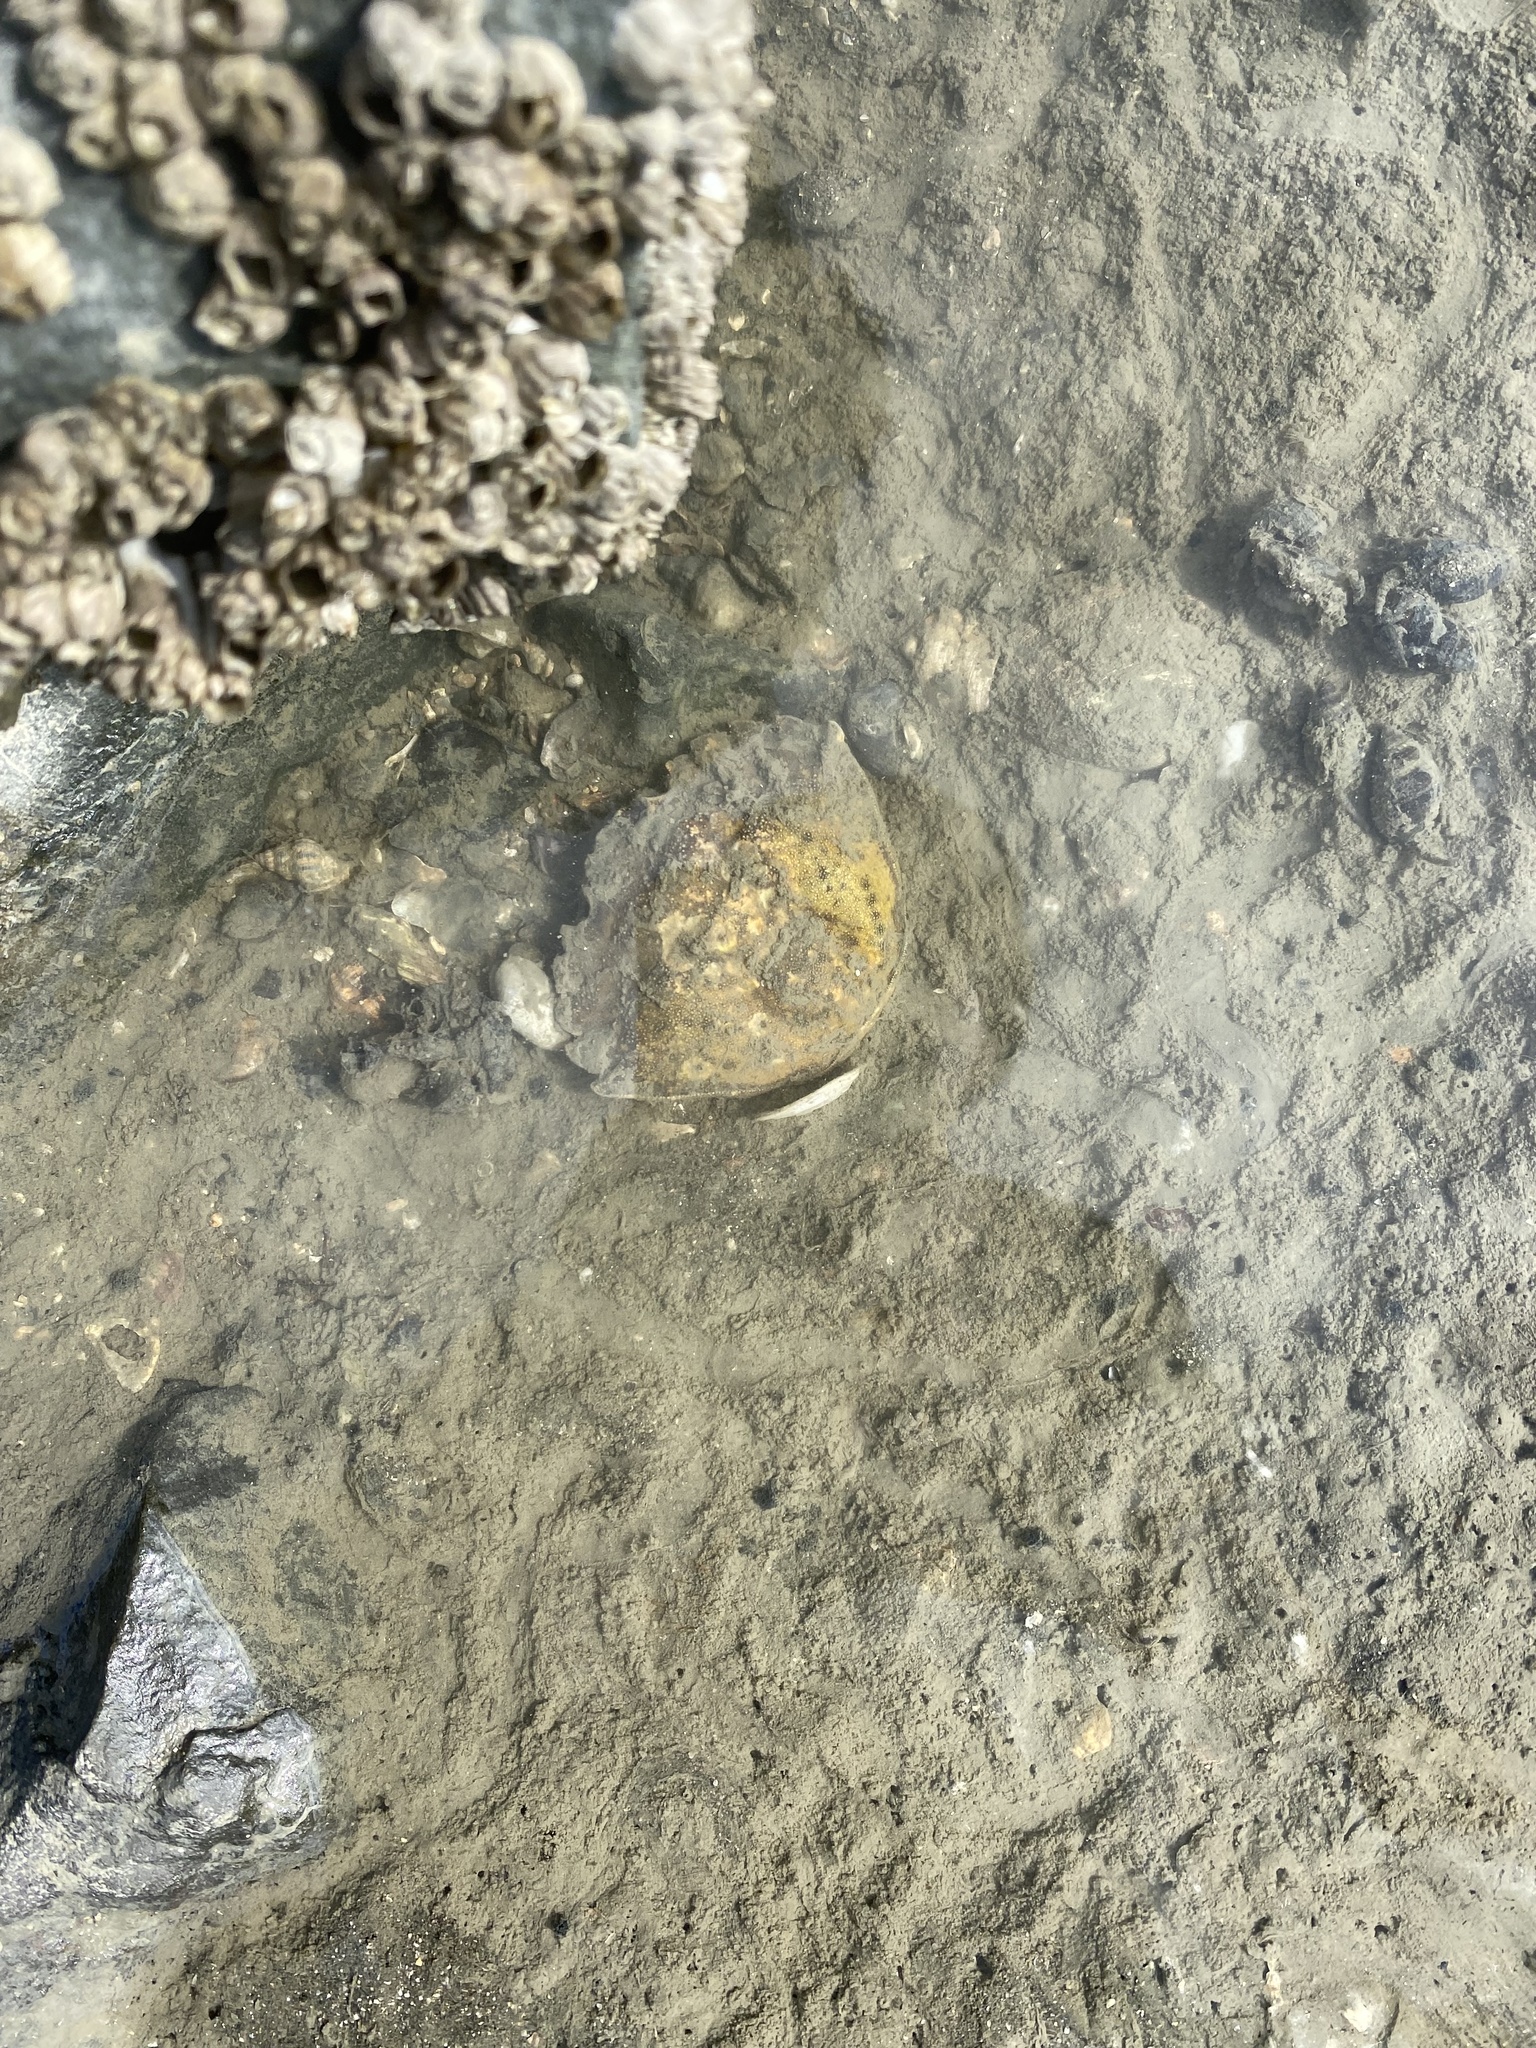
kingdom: Animalia
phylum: Arthropoda
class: Malacostraca
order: Decapoda
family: Carcinidae
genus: Carcinus
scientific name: Carcinus maenas
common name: European green crab
